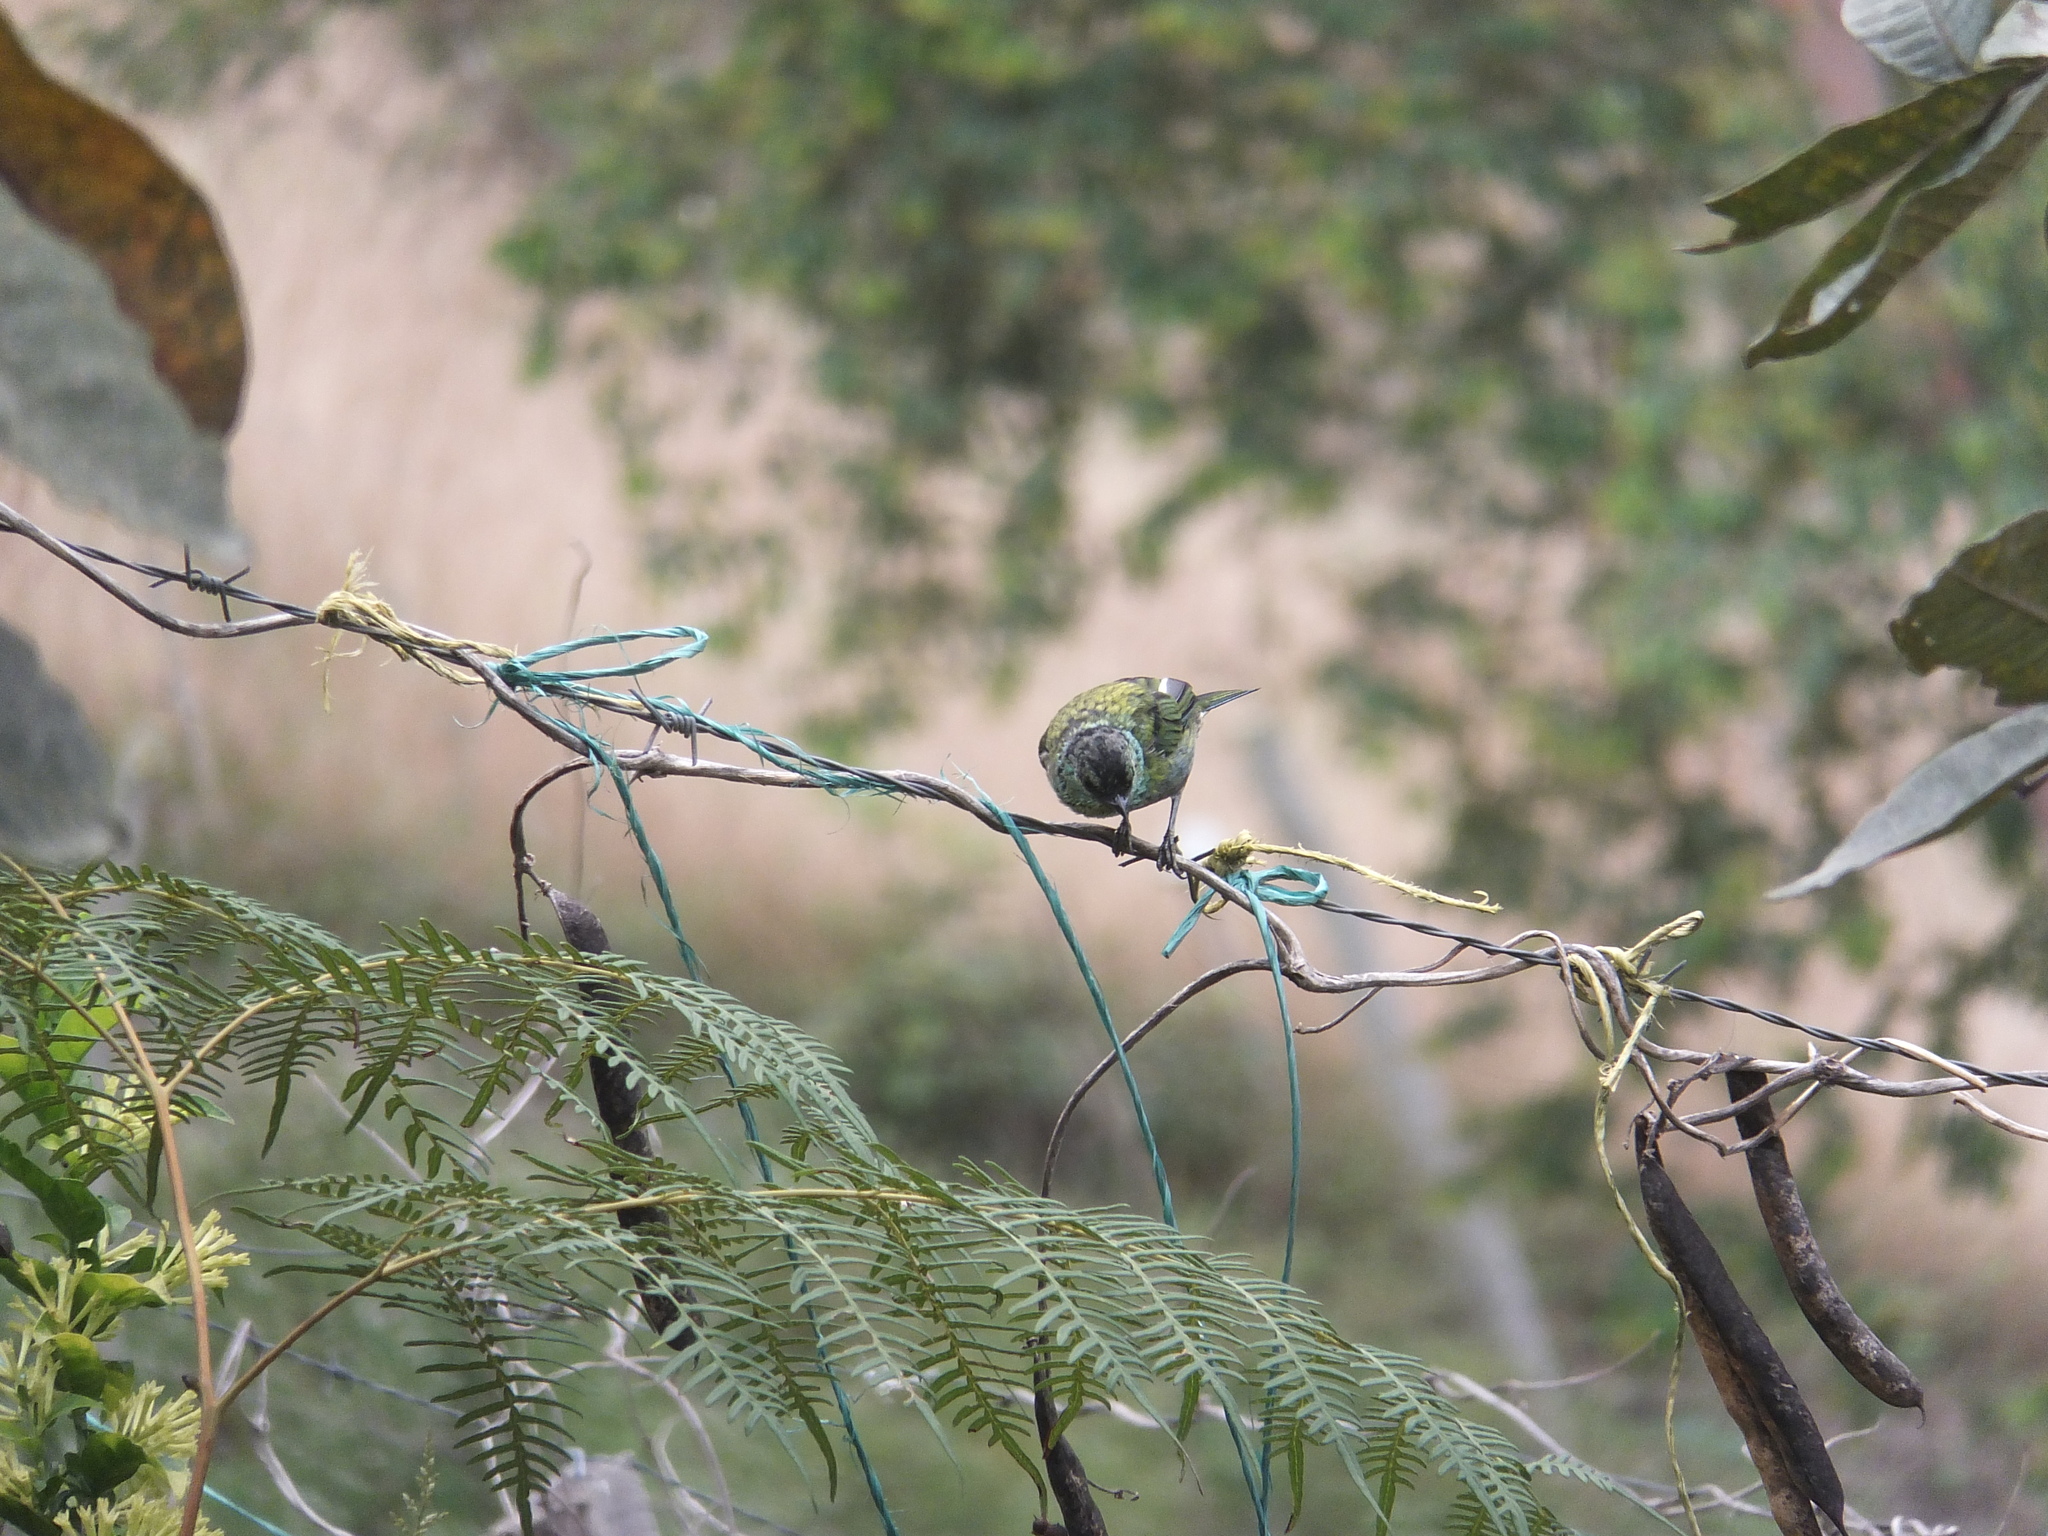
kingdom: Animalia
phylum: Chordata
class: Aves
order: Passeriformes
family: Thraupidae
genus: Stilpnia
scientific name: Stilpnia heinei
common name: Black-capped tanager
